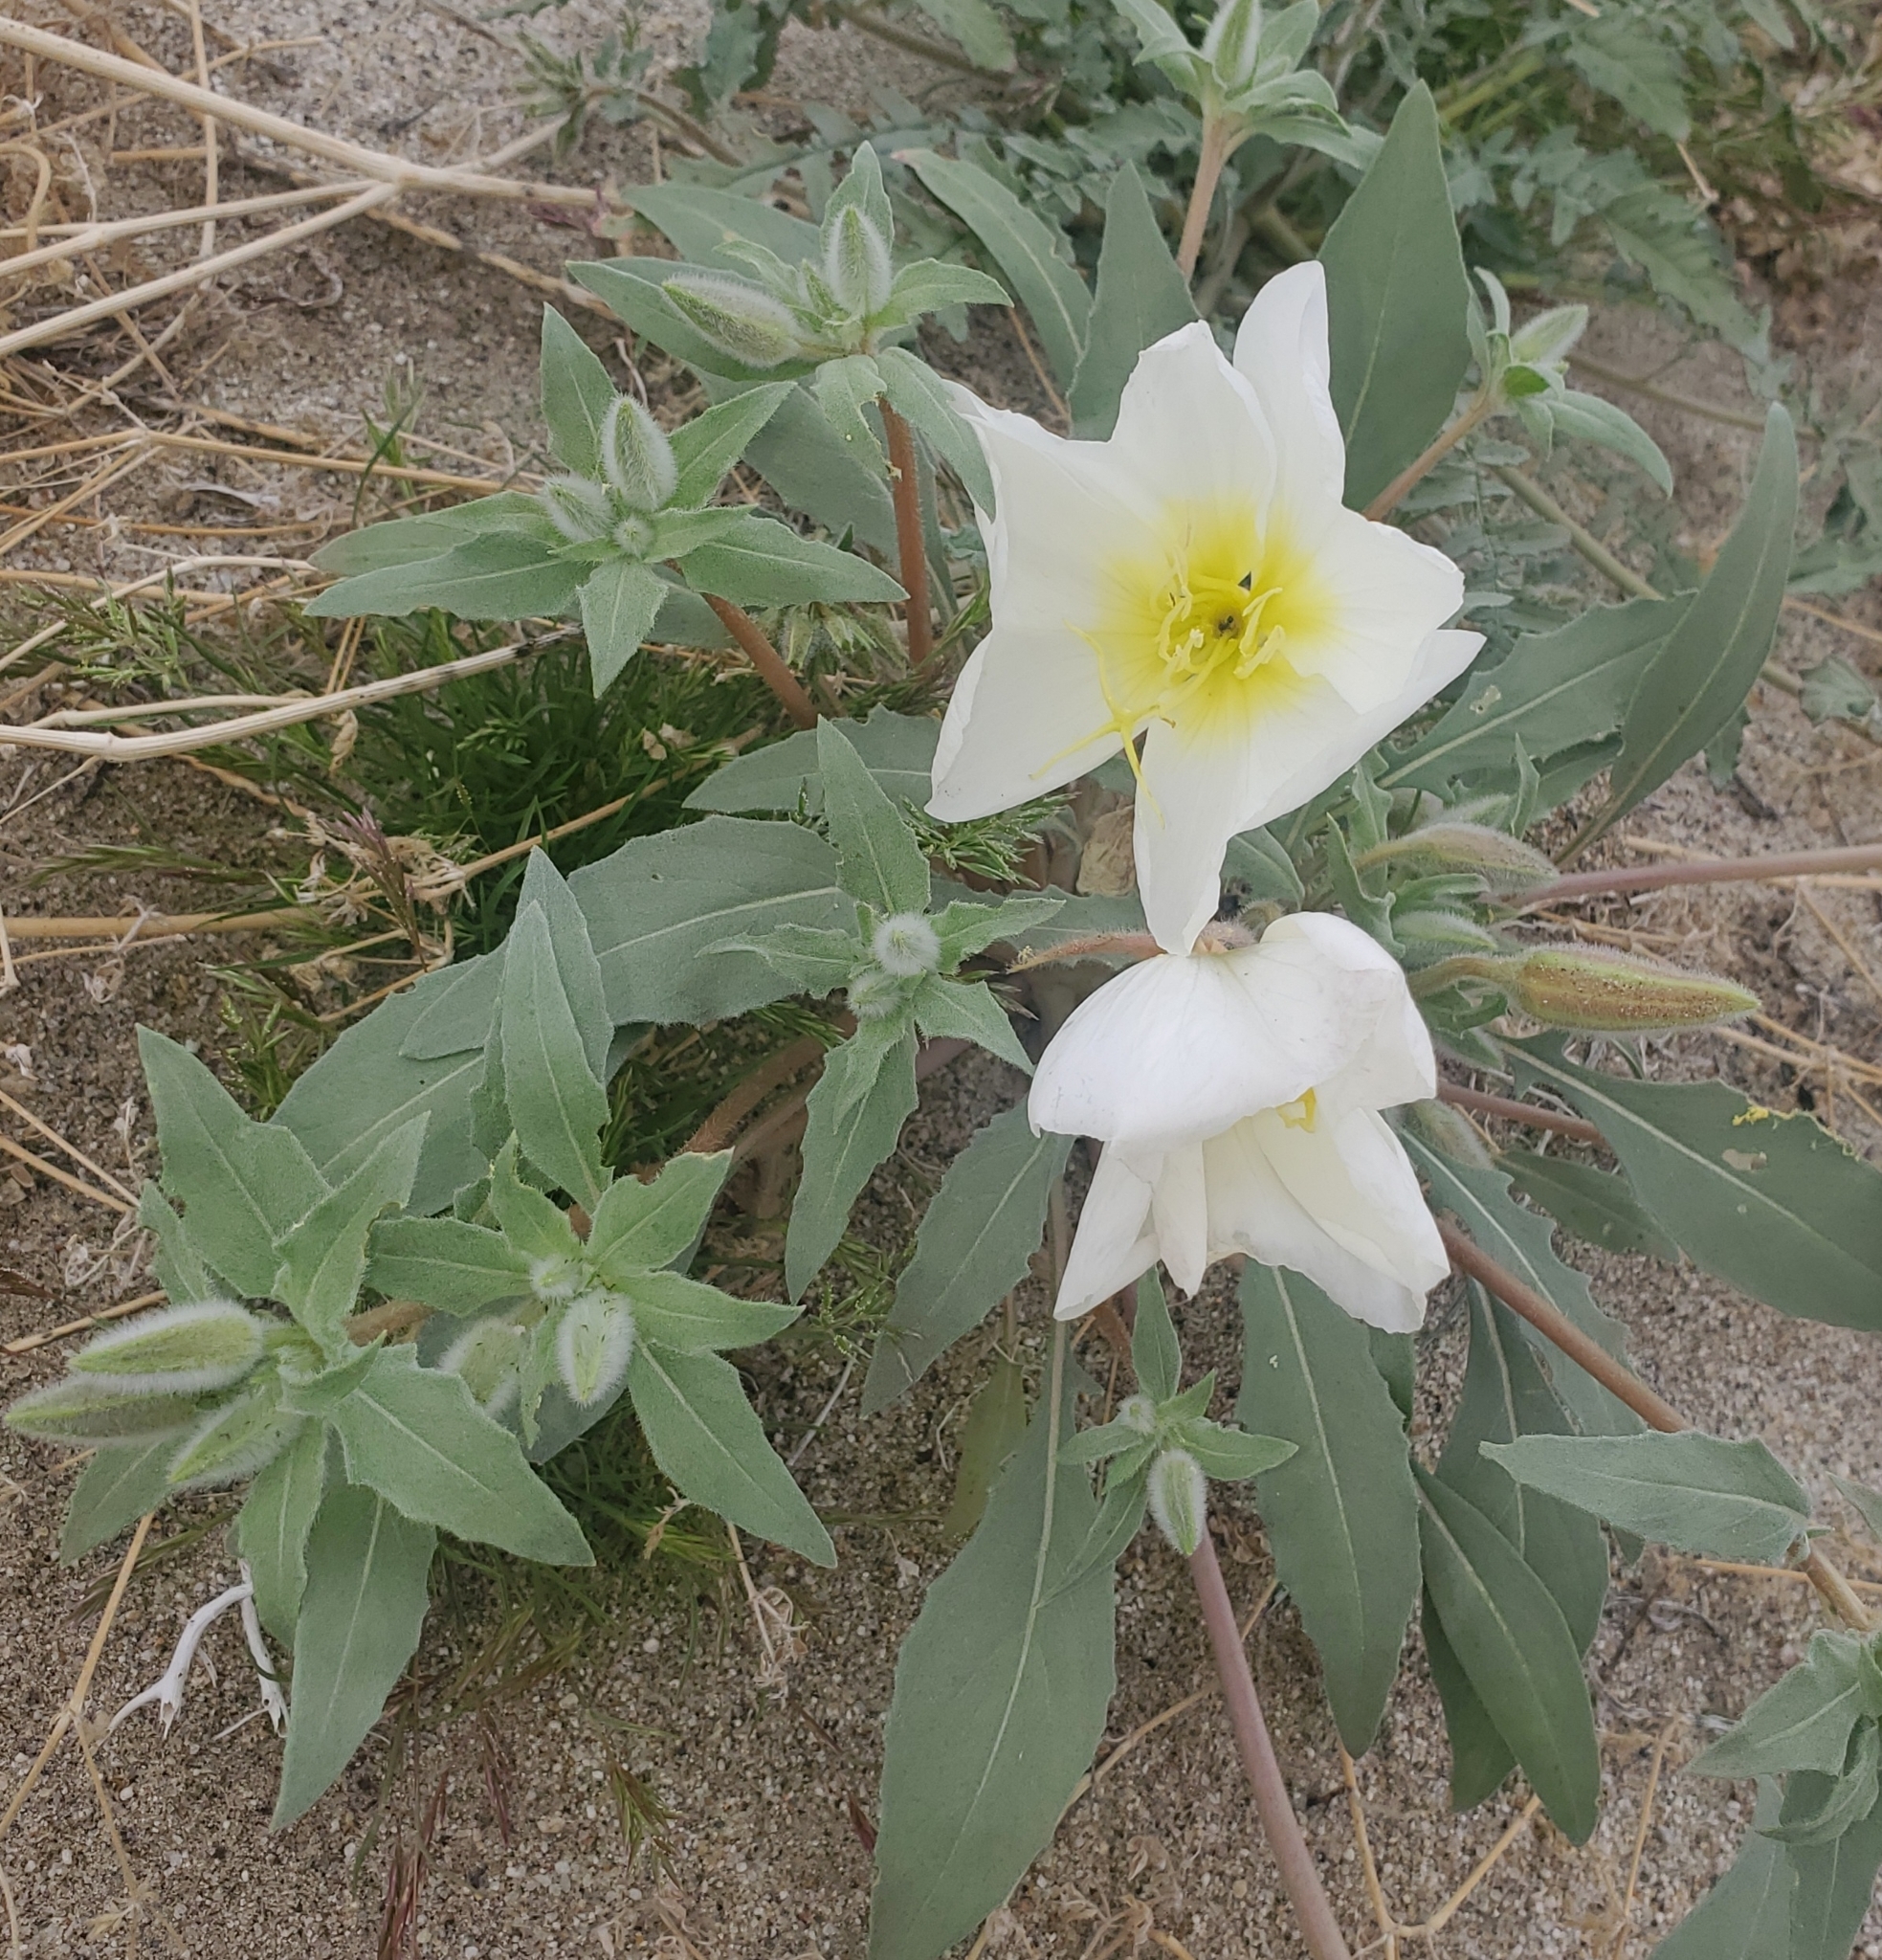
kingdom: Plantae
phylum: Tracheophyta
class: Magnoliopsida
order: Myrtales
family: Onagraceae
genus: Oenothera
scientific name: Oenothera deltoides
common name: Basket evening-primrose
